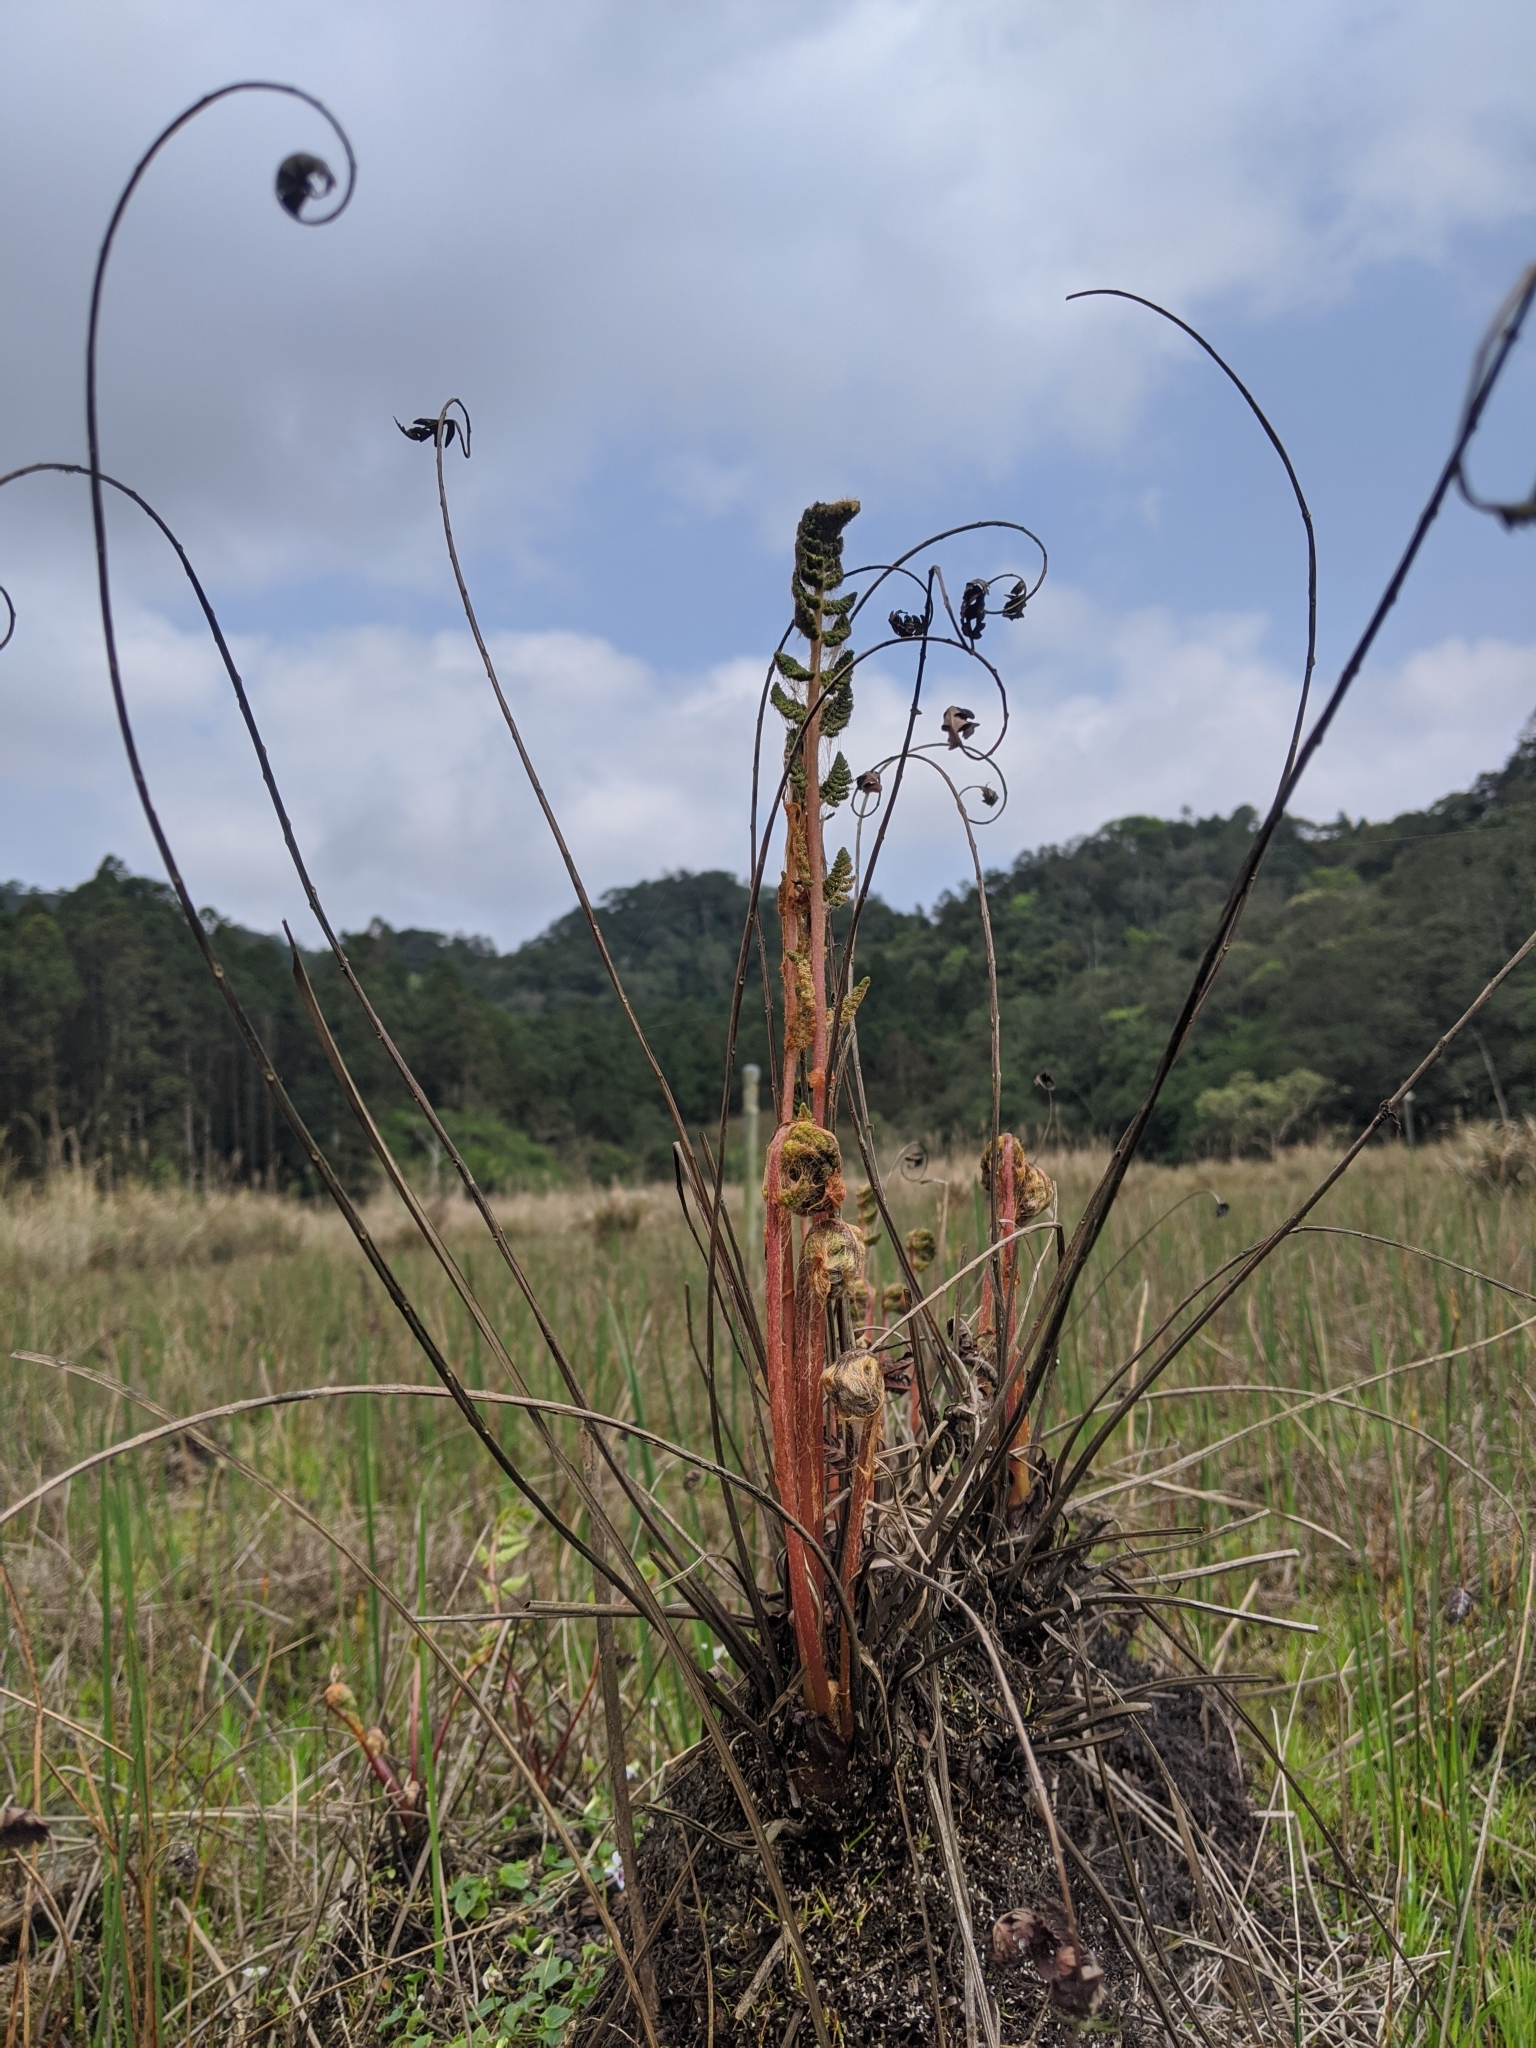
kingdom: Plantae
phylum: Tracheophyta
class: Polypodiopsida
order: Osmundales
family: Osmundaceae
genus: Osmundastrum
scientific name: Osmundastrum cinnamomeum
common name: Cinnamon fern
